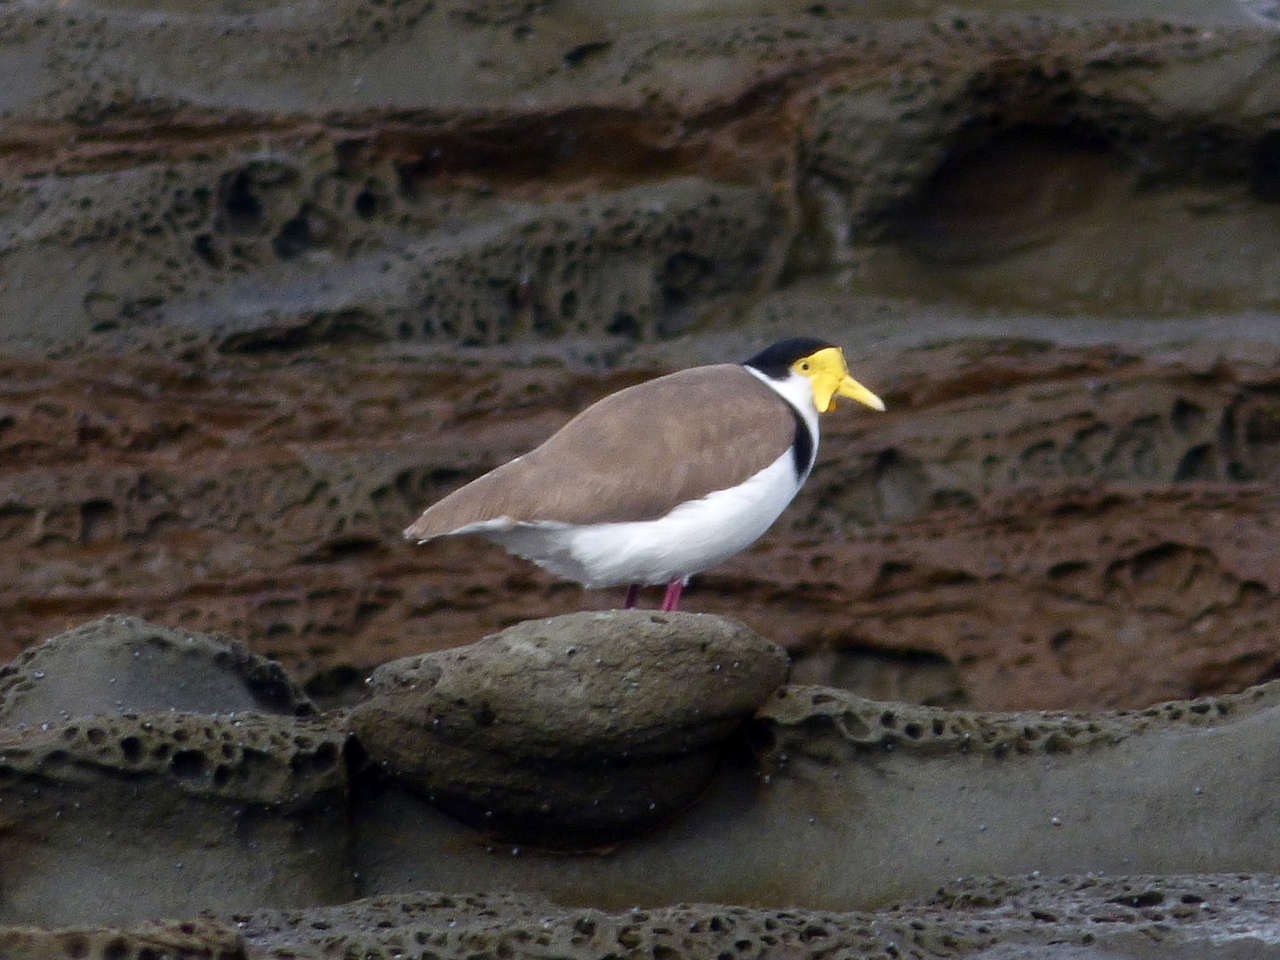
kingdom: Animalia
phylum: Chordata
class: Aves
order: Charadriiformes
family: Charadriidae
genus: Vanellus
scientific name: Vanellus miles
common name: Masked lapwing
